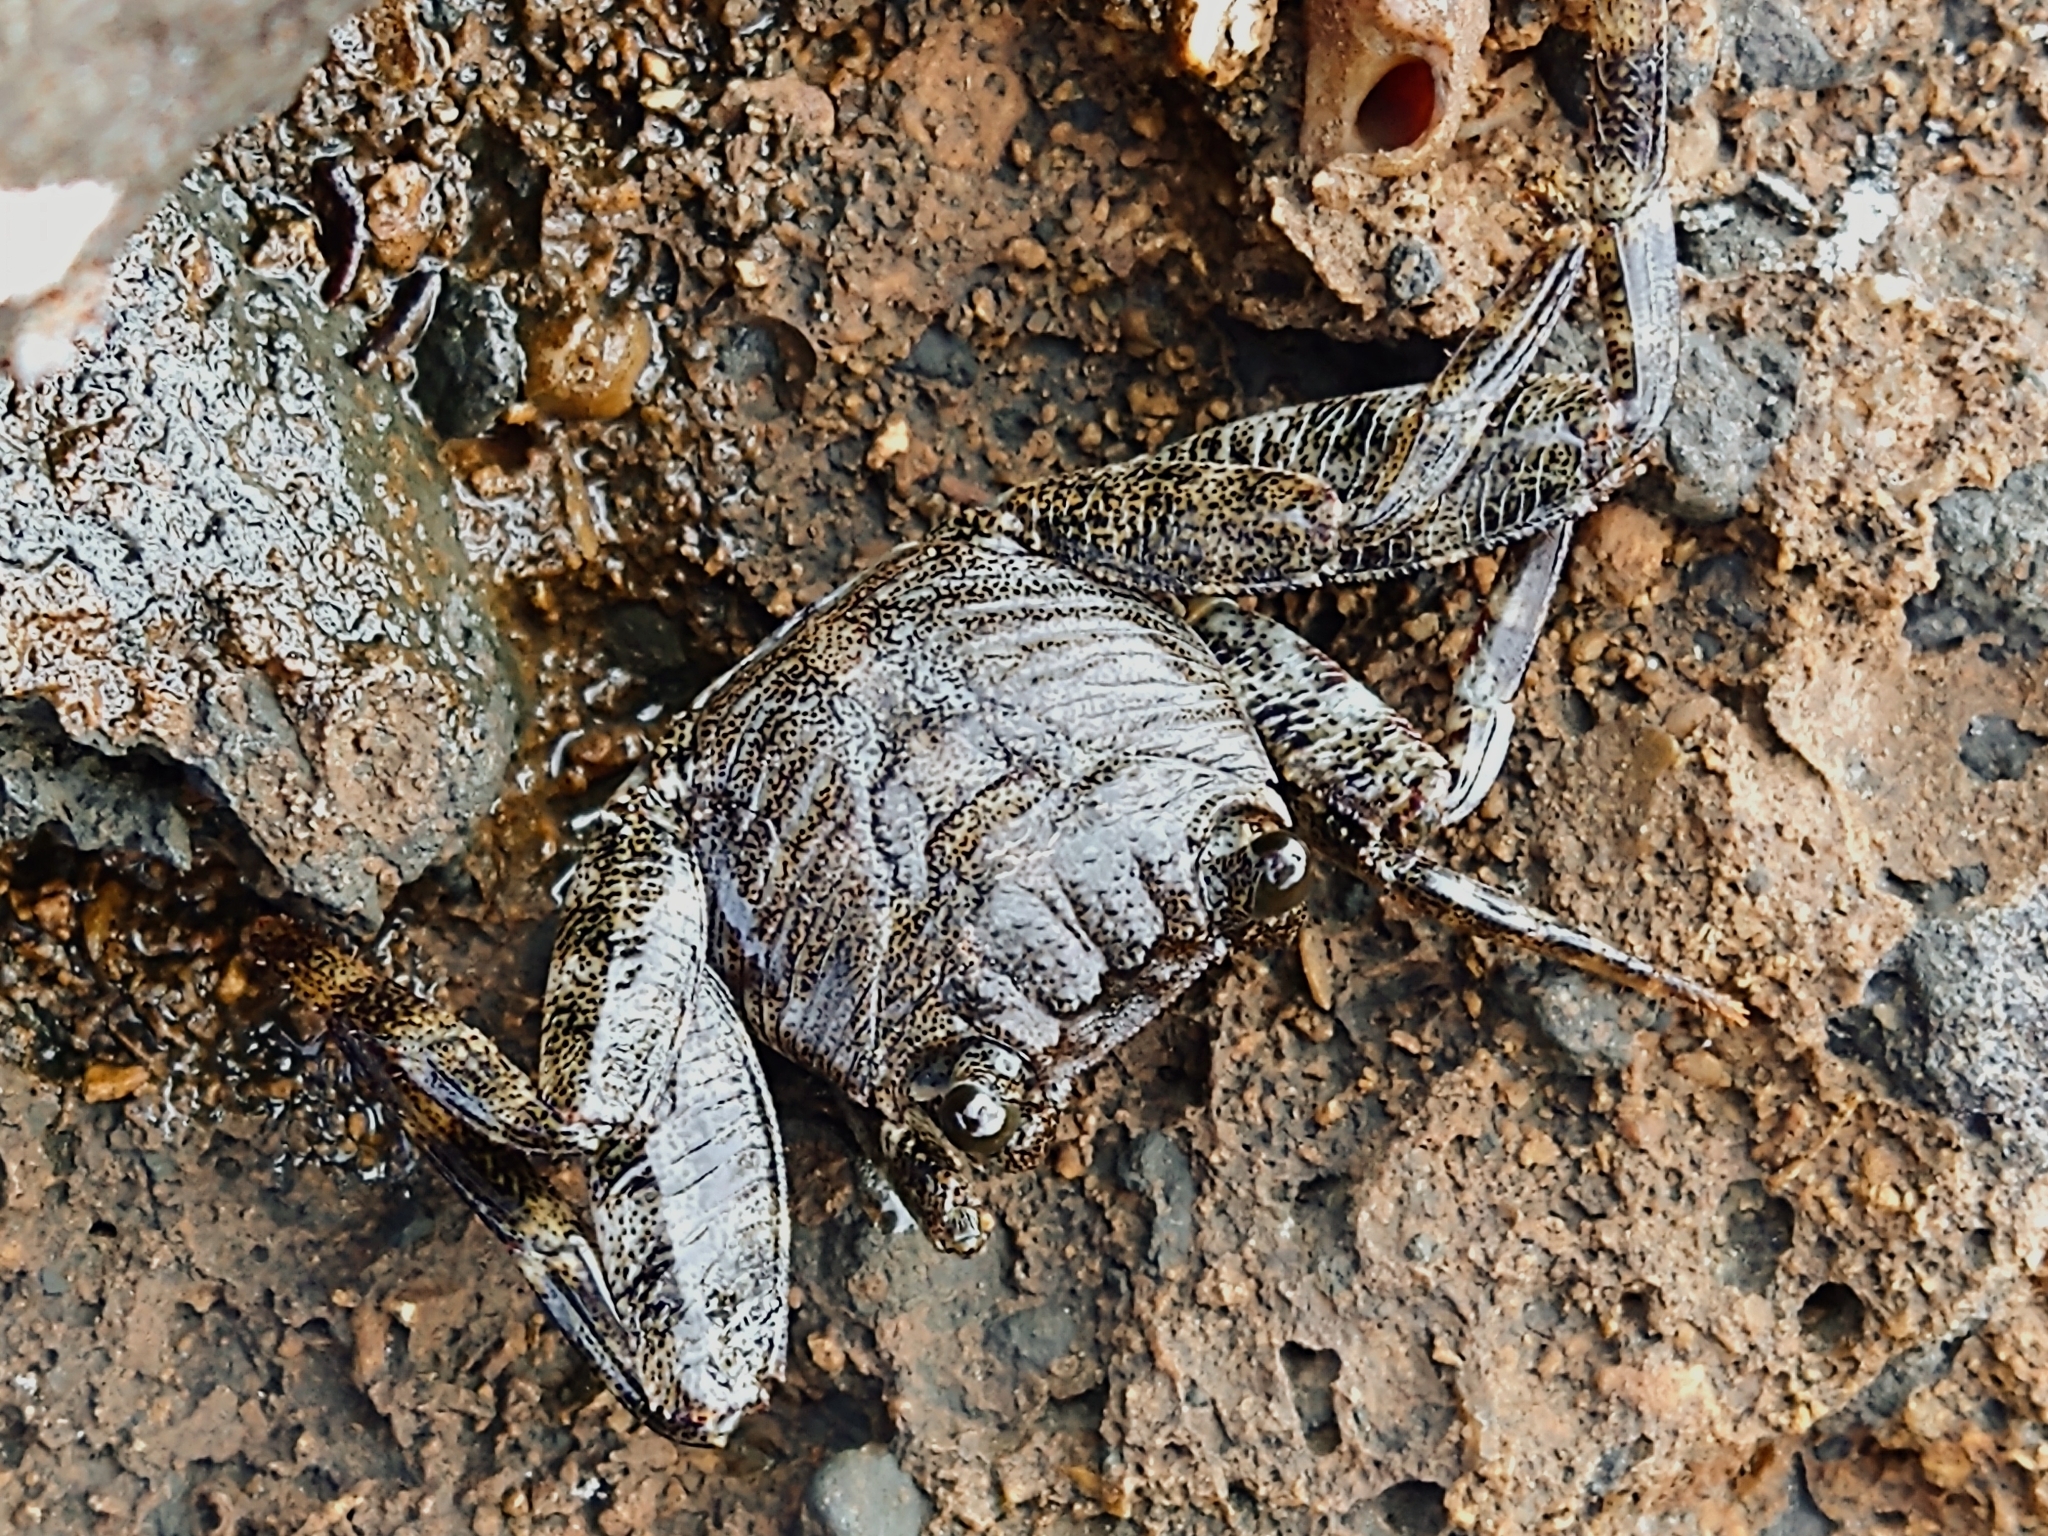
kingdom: Animalia
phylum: Arthropoda
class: Malacostraca
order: Decapoda
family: Grapsidae
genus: Grapsus
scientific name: Grapsus adscensionis
